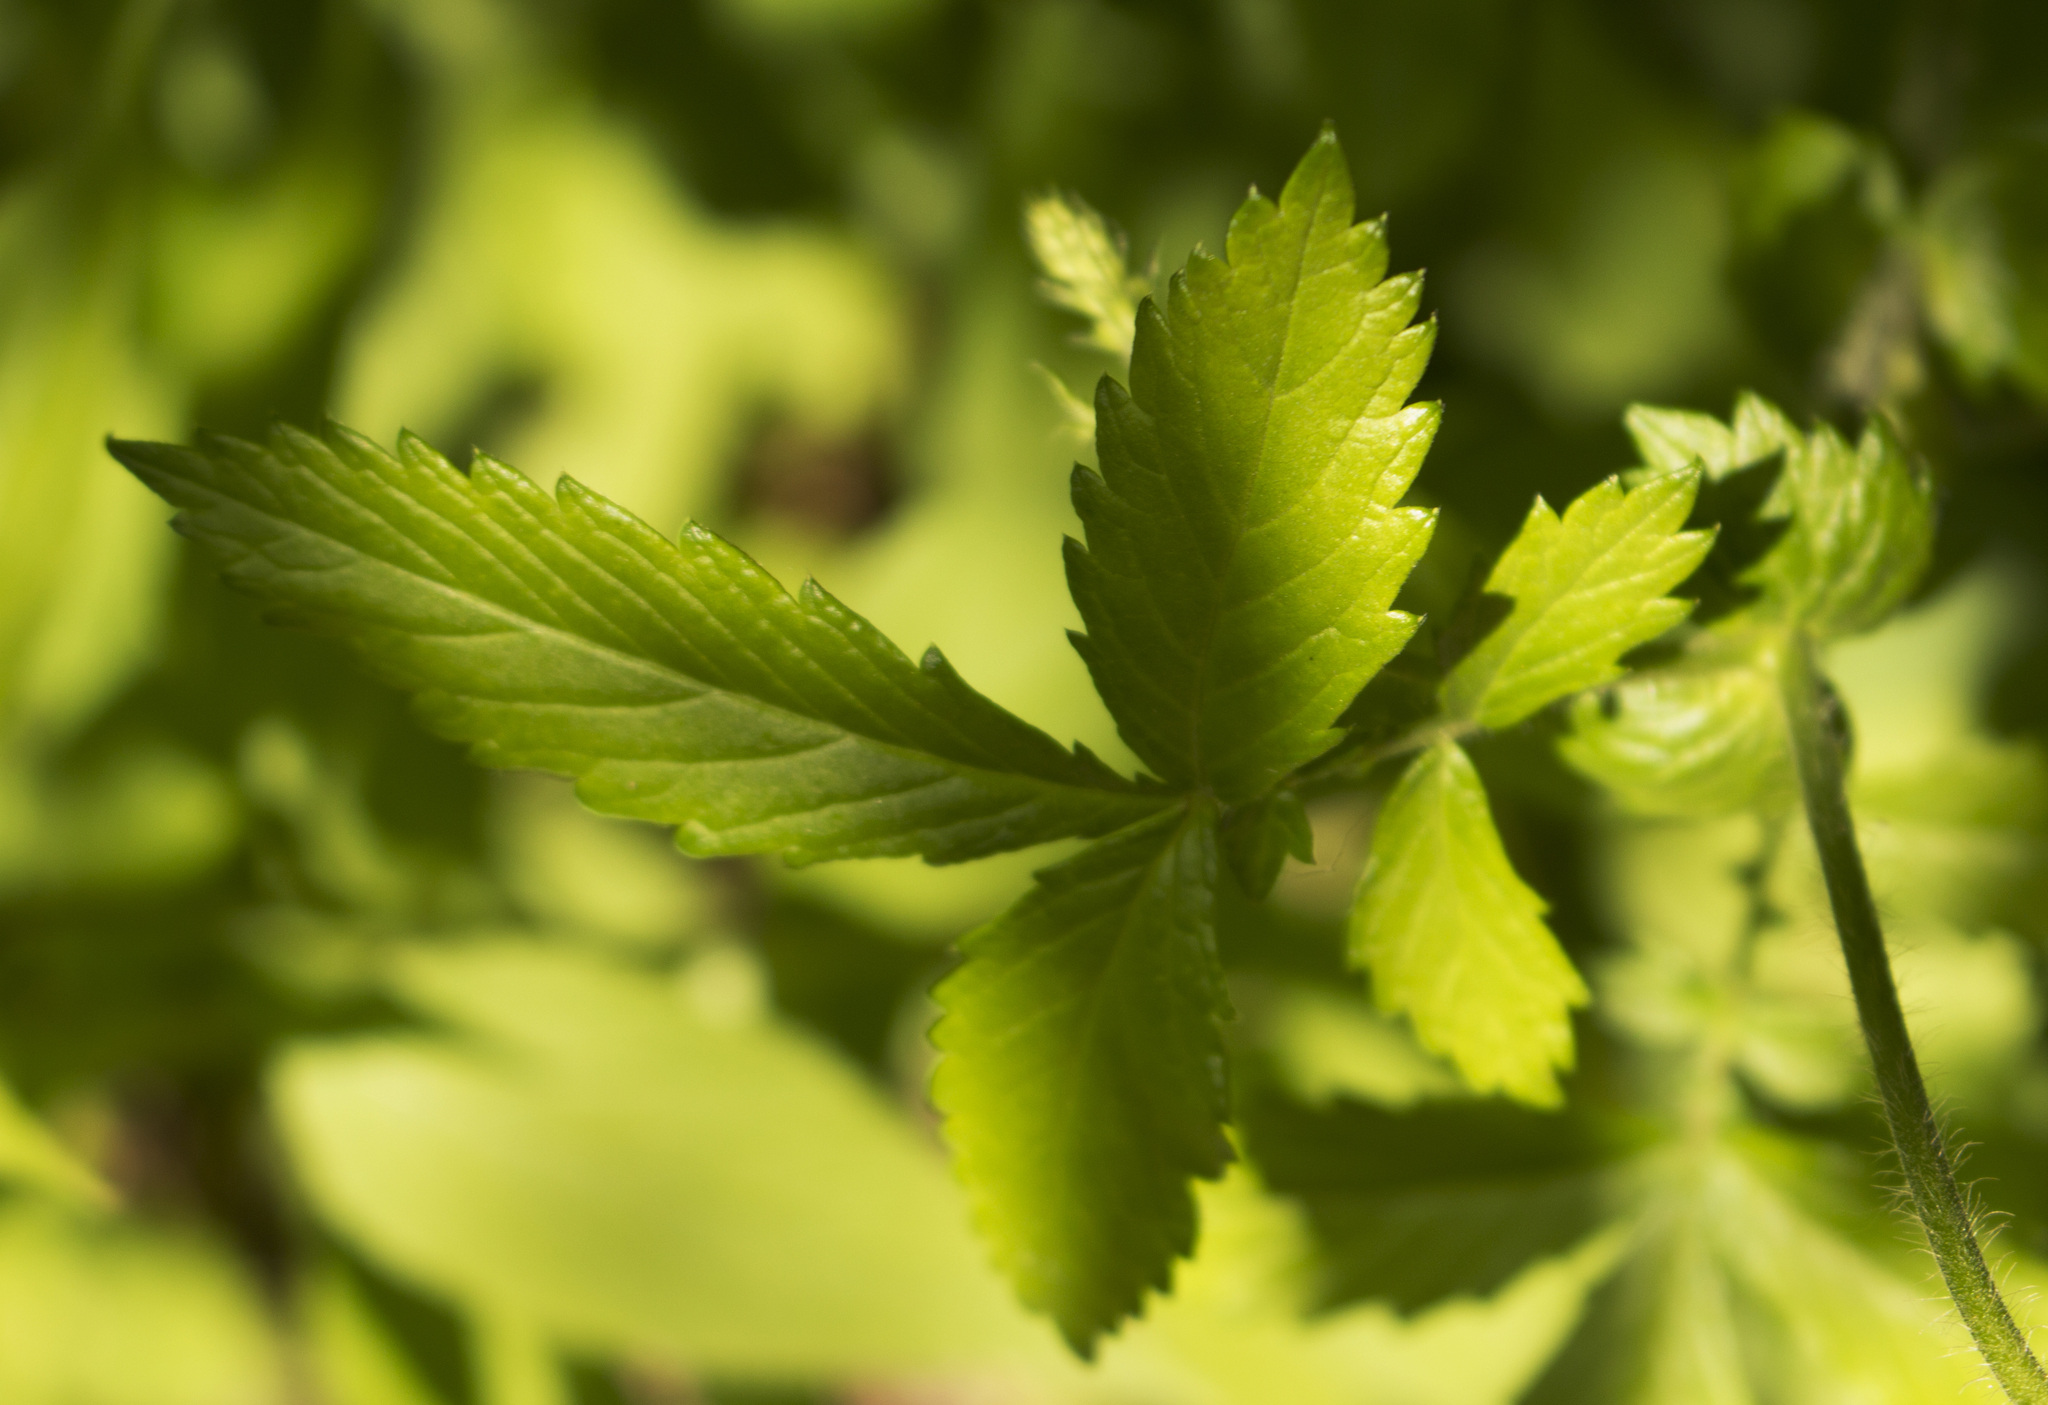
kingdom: Plantae
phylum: Tracheophyta
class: Magnoliopsida
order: Rosales
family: Rosaceae
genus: Agrimonia
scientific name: Agrimonia gryposepala
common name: Common agrimony
